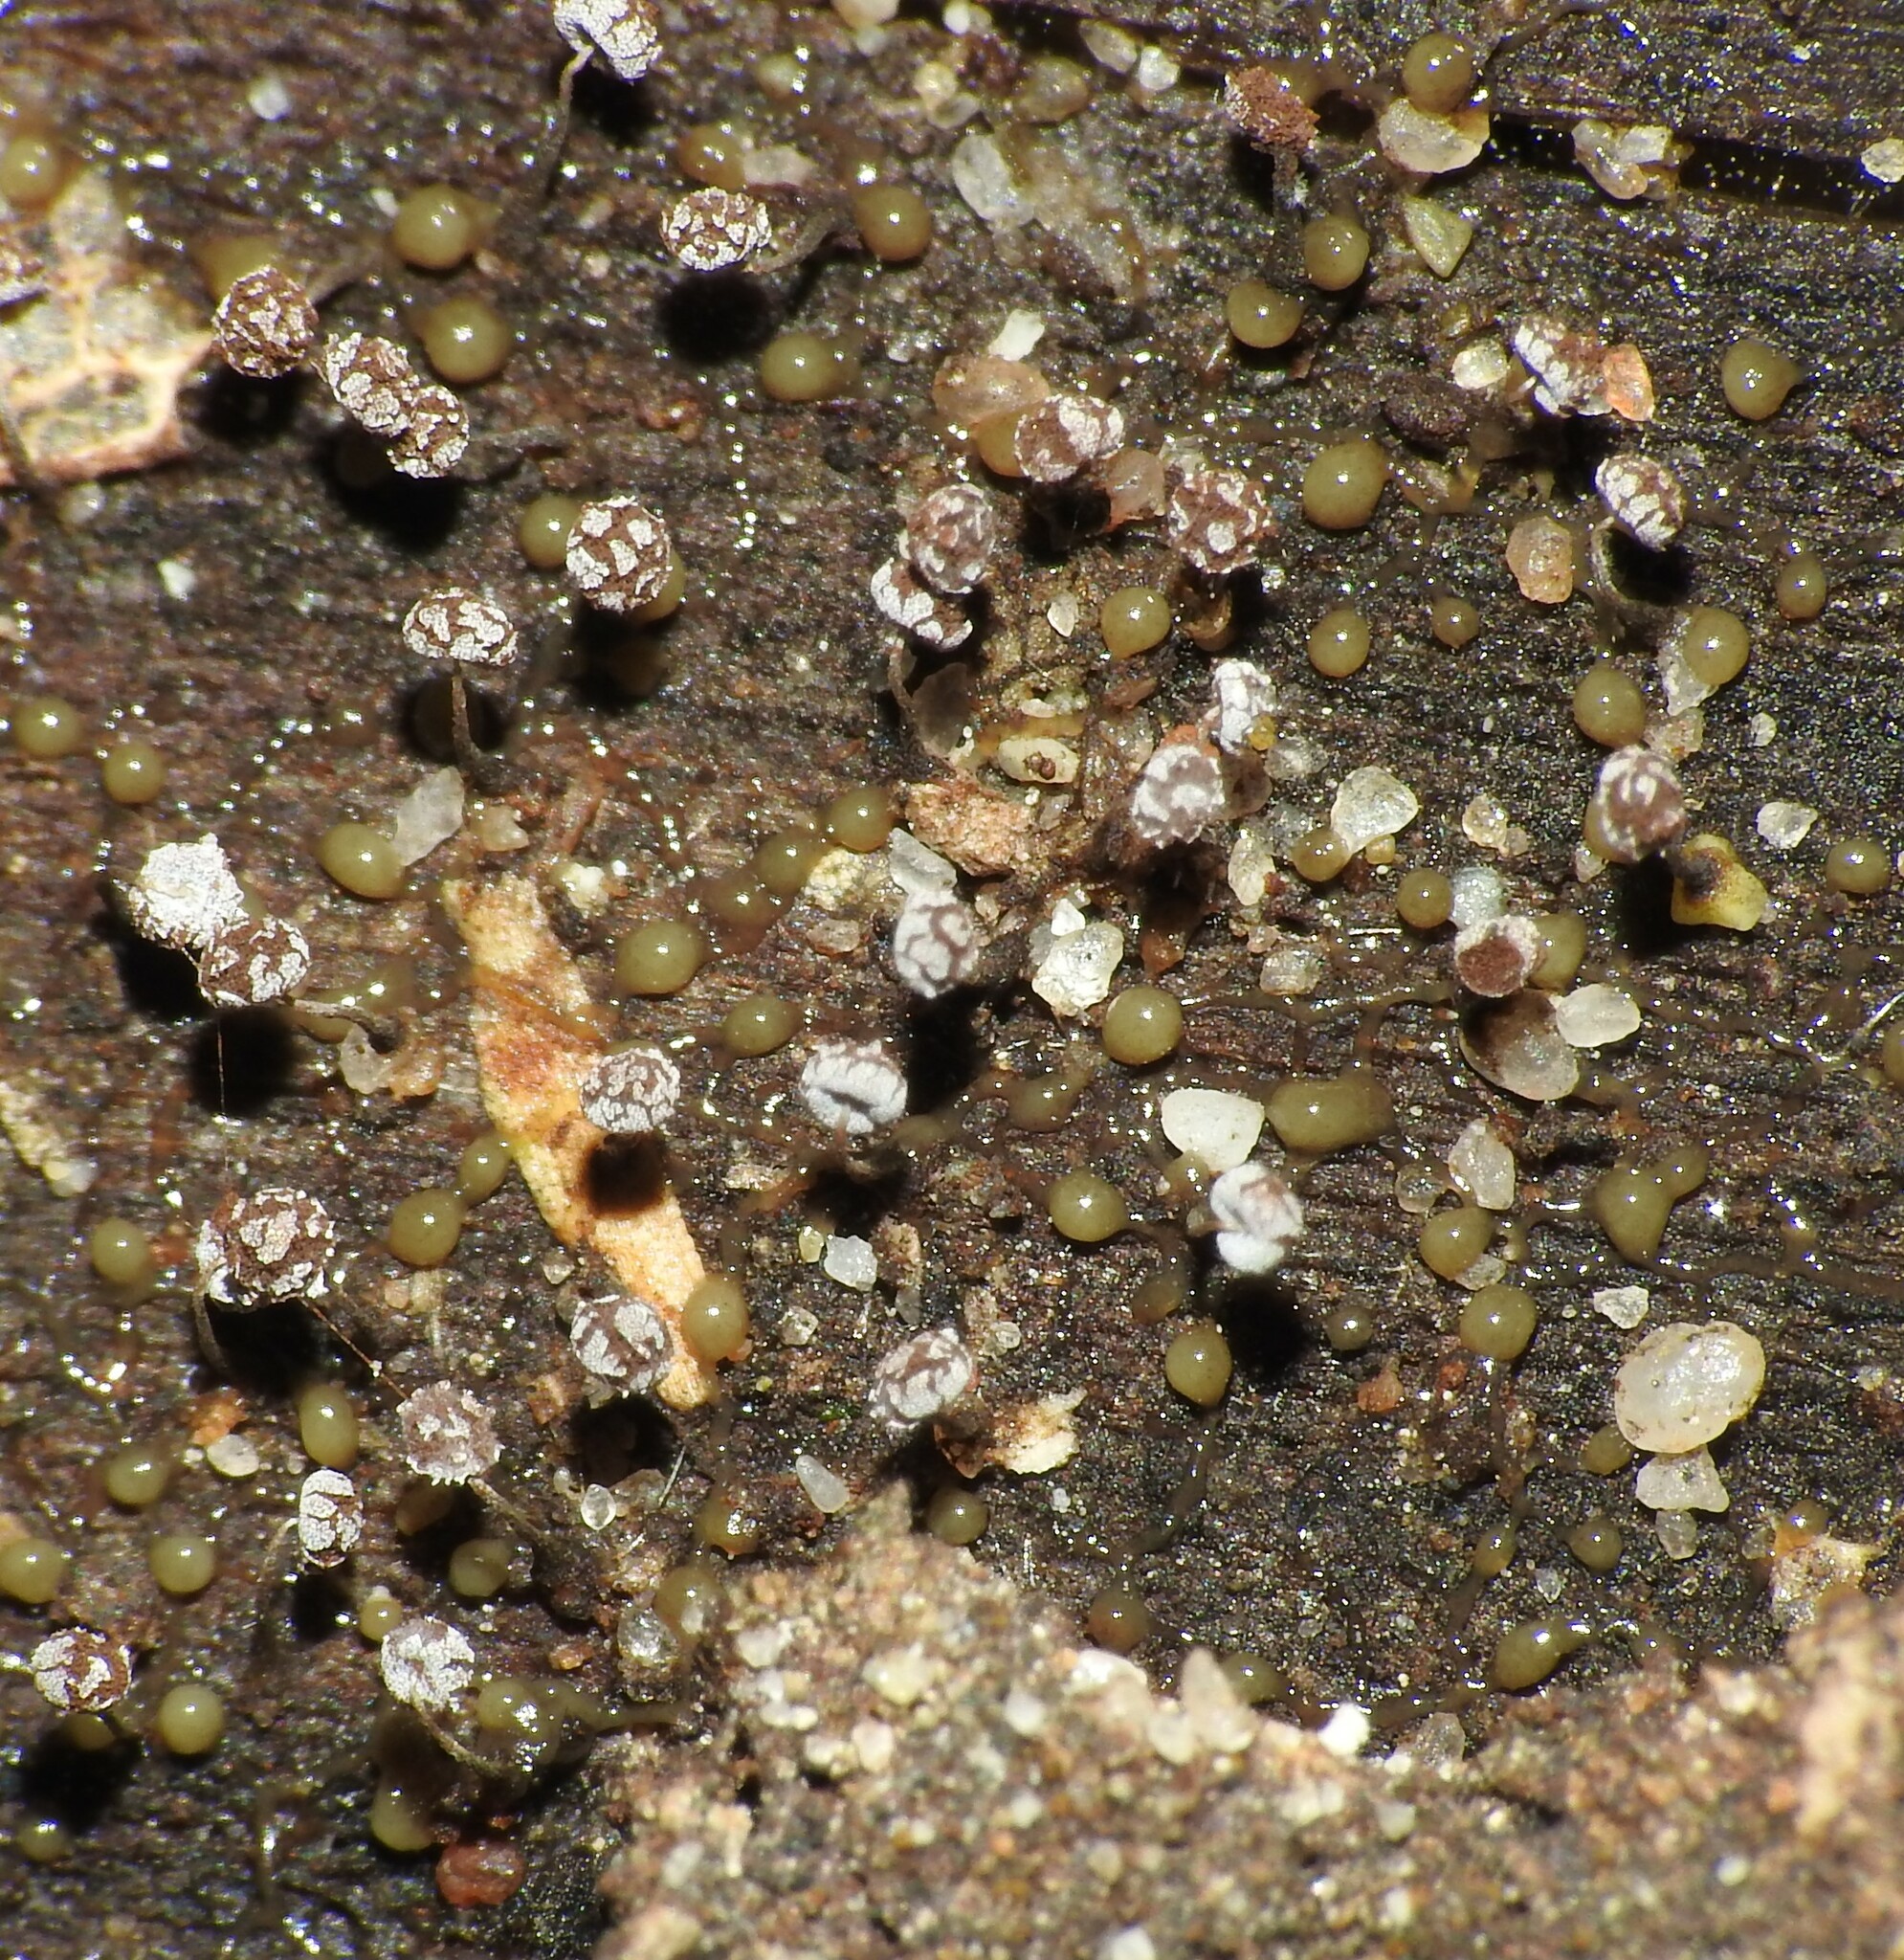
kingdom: Protozoa
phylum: Mycetozoa
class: Myxomycetes
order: Physarales
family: Physaraceae
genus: Physarum
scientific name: Physarum album
